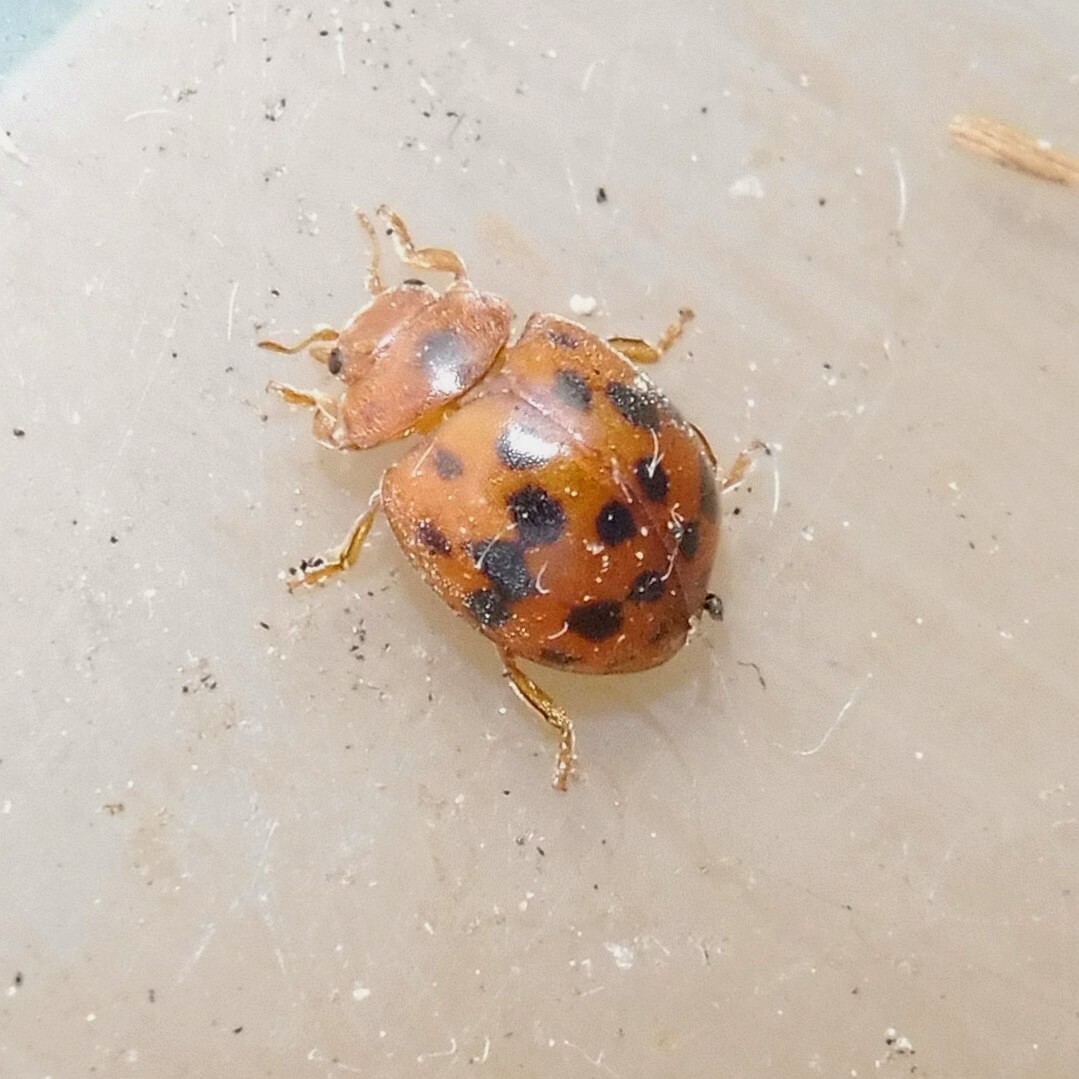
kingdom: Animalia
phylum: Arthropoda
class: Insecta
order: Coleoptera
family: Coccinellidae
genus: Subcoccinella
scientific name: Subcoccinella vigintiquatuorpunctata
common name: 24-spot ladybird
